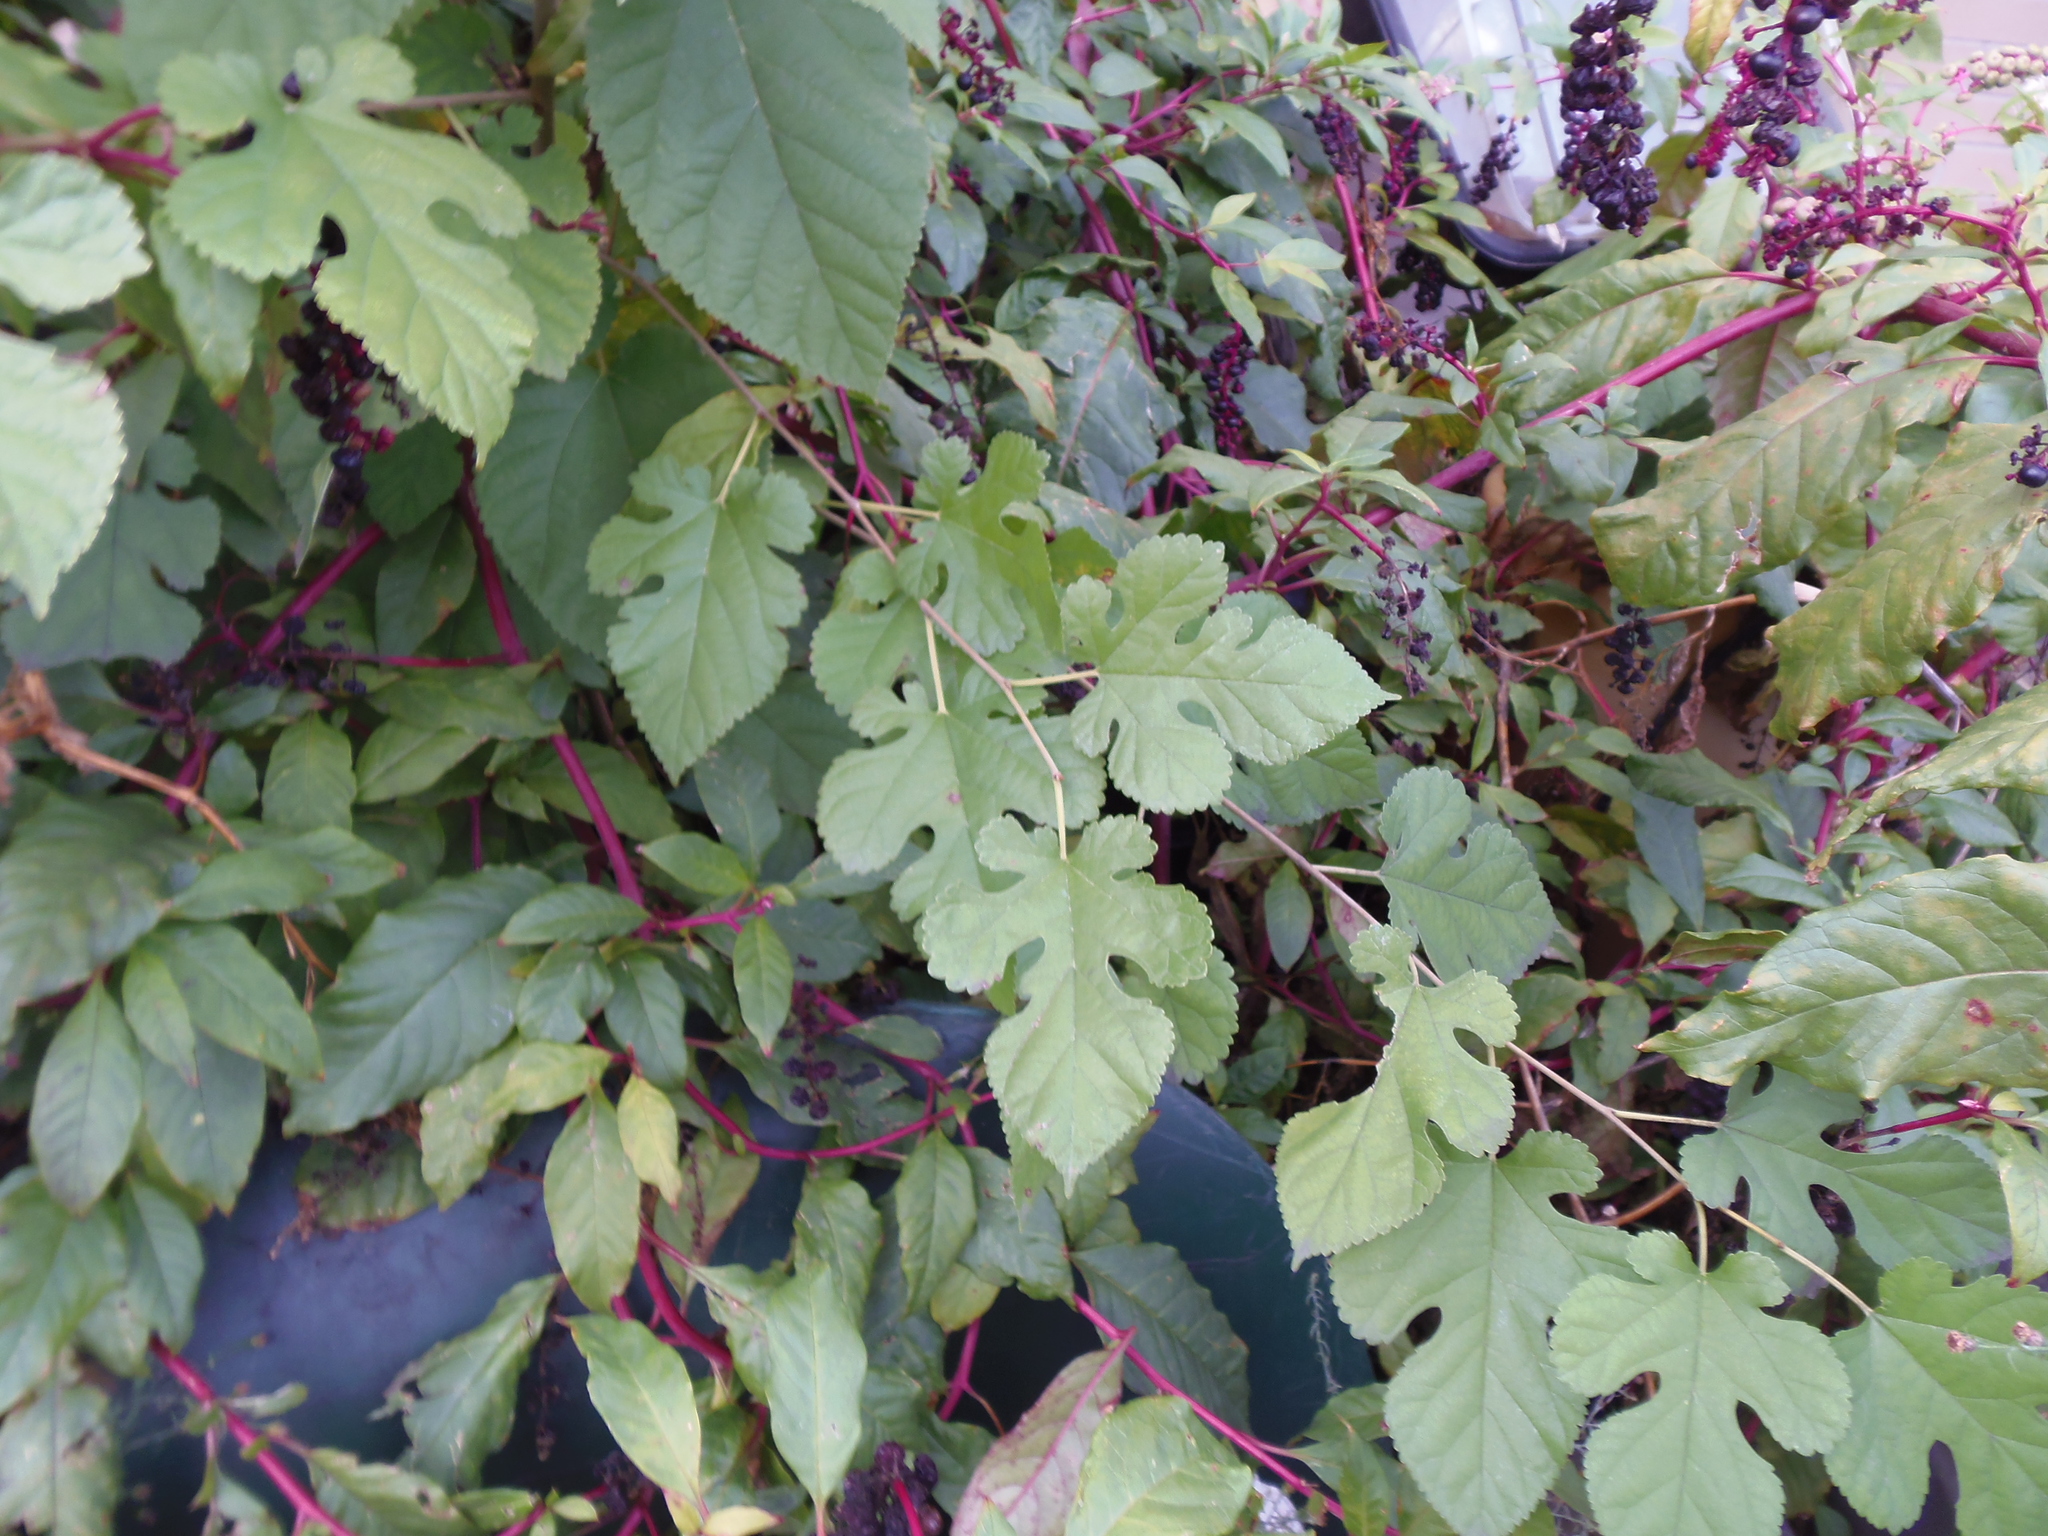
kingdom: Plantae
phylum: Tracheophyta
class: Magnoliopsida
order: Rosales
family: Moraceae
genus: Morus
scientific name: Morus alba
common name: White mulberry
